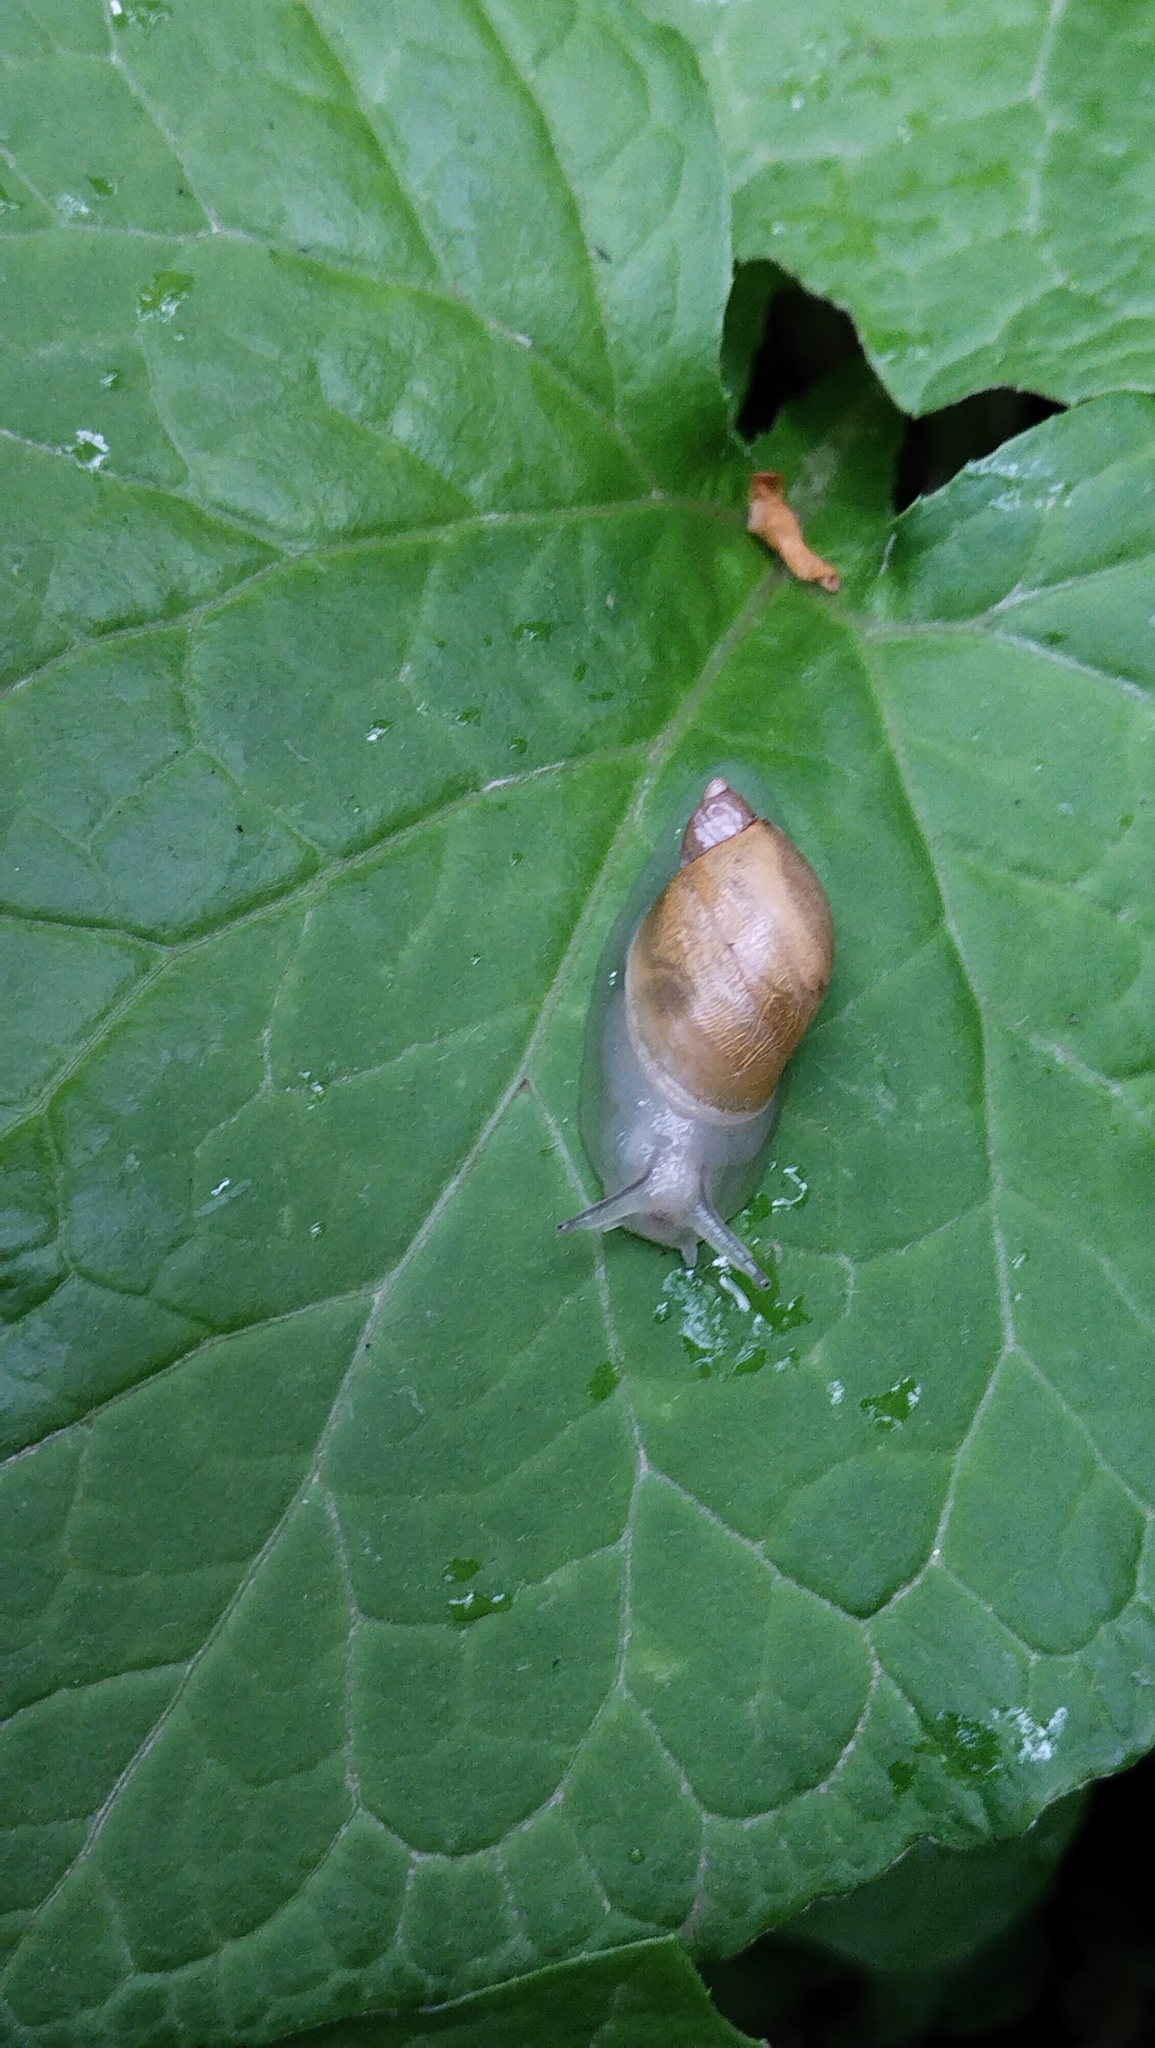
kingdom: Animalia
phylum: Mollusca
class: Gastropoda
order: Stylommatophora
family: Succineidae
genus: Succinea
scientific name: Succinea lauta
